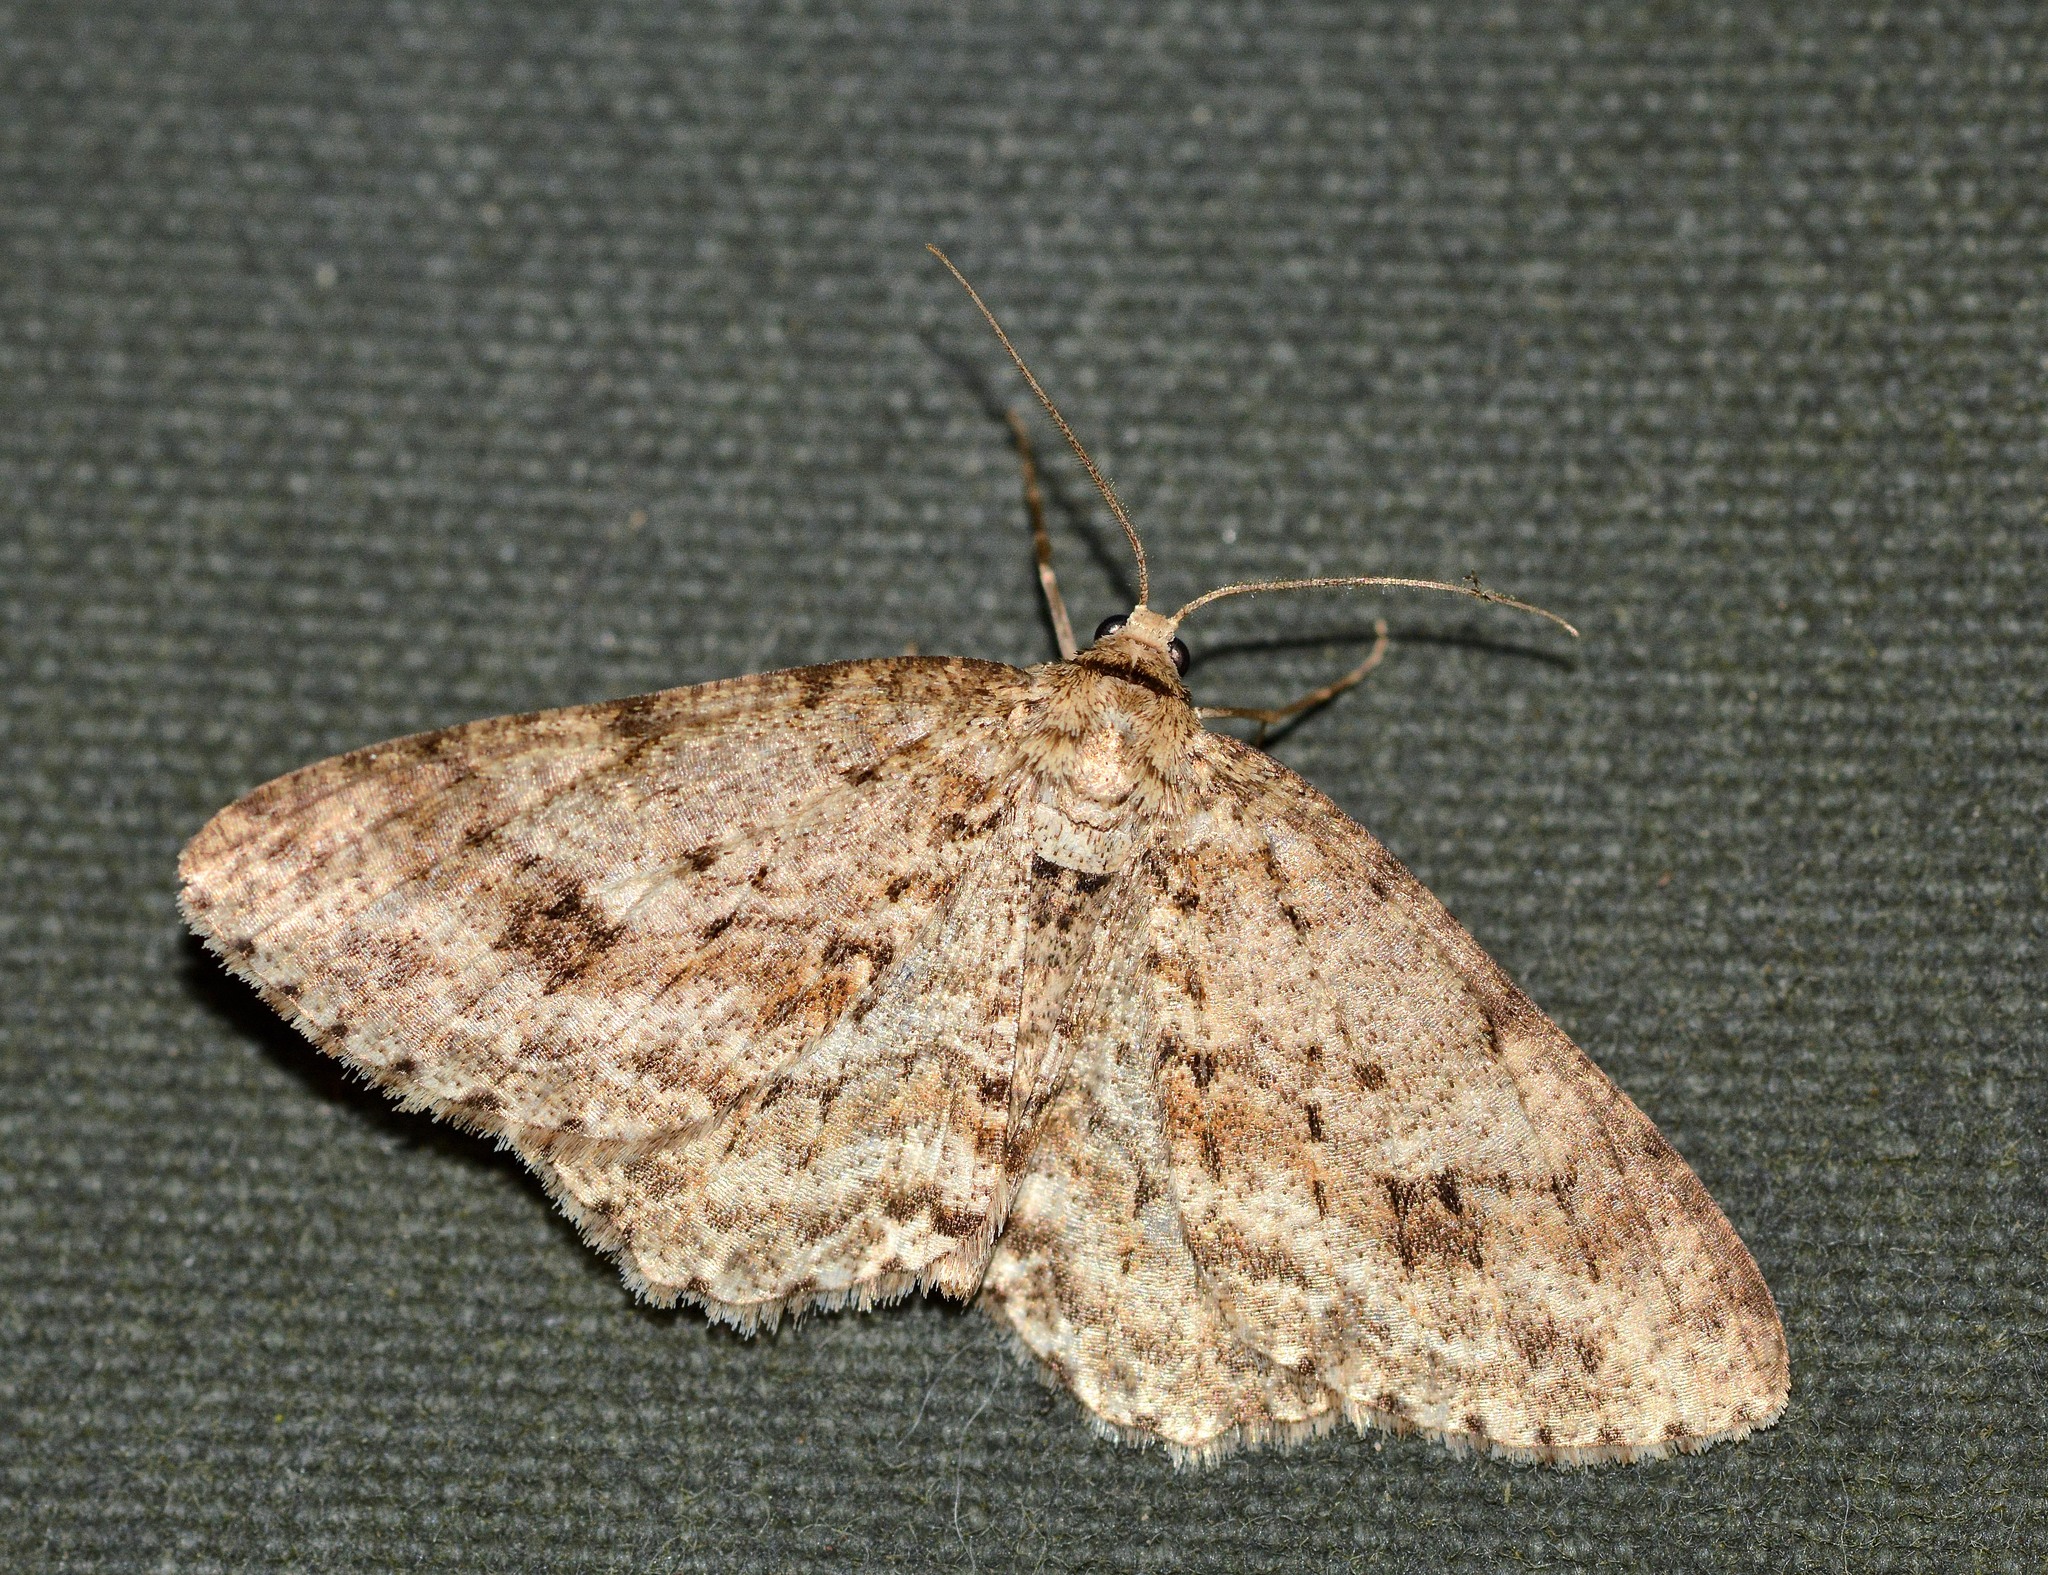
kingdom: Animalia
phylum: Arthropoda
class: Insecta
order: Lepidoptera
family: Geometridae
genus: Ectropis
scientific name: Ectropis crepuscularia
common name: Engrailed
